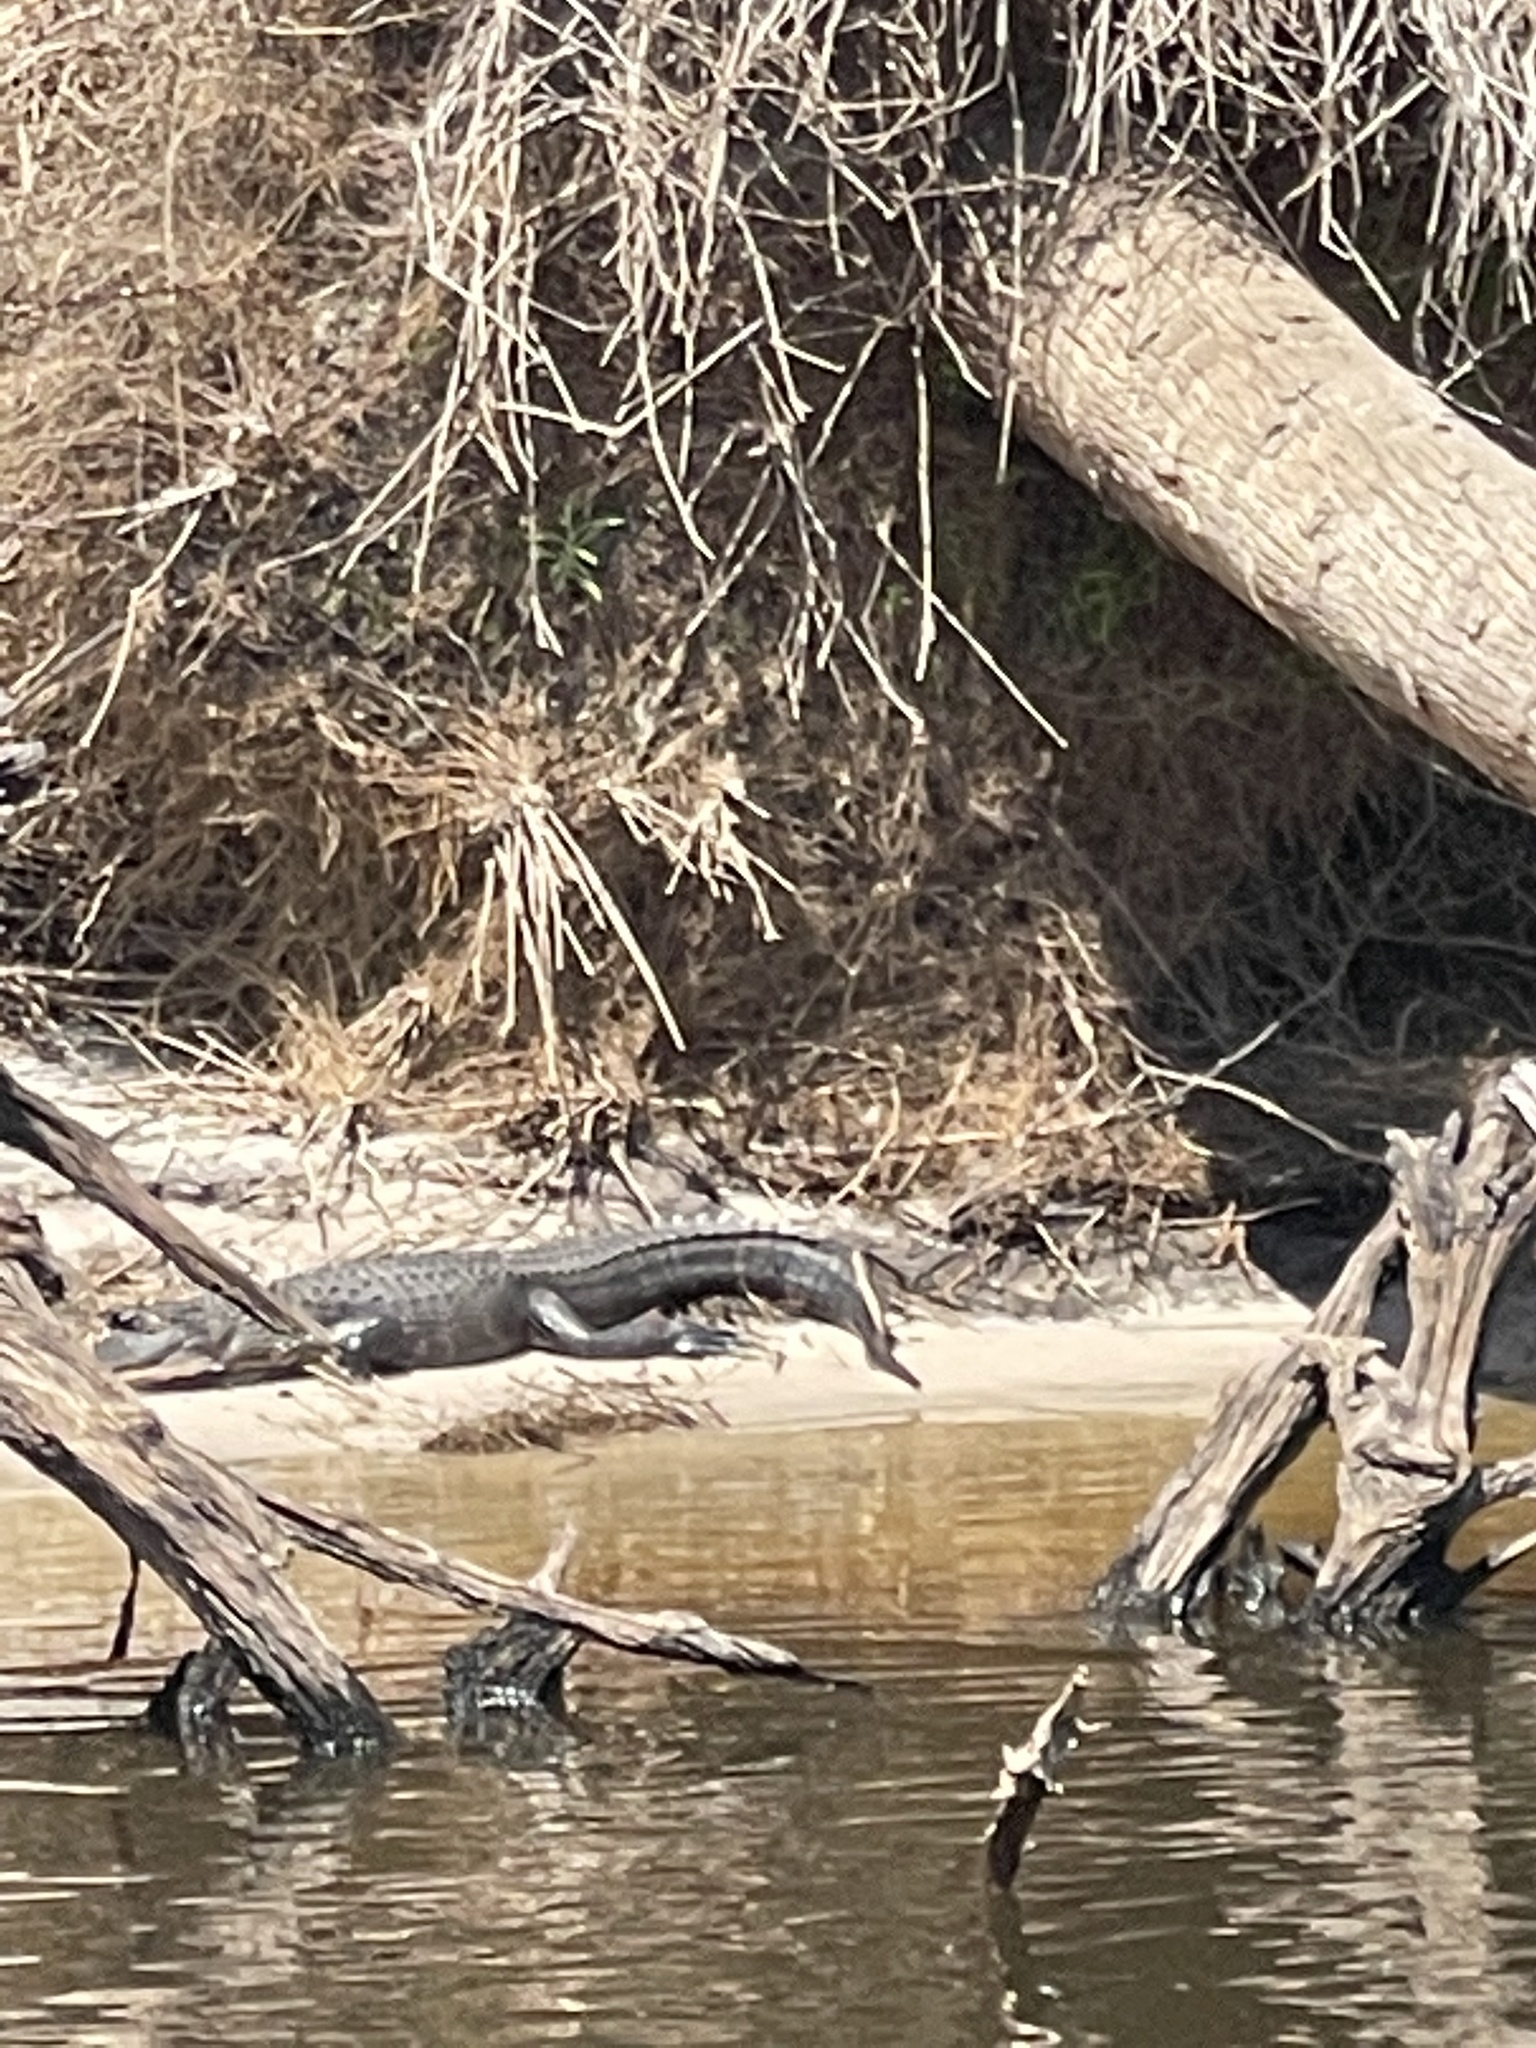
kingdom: Animalia
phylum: Chordata
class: Crocodylia
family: Alligatoridae
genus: Alligator
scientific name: Alligator mississippiensis
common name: American alligator
